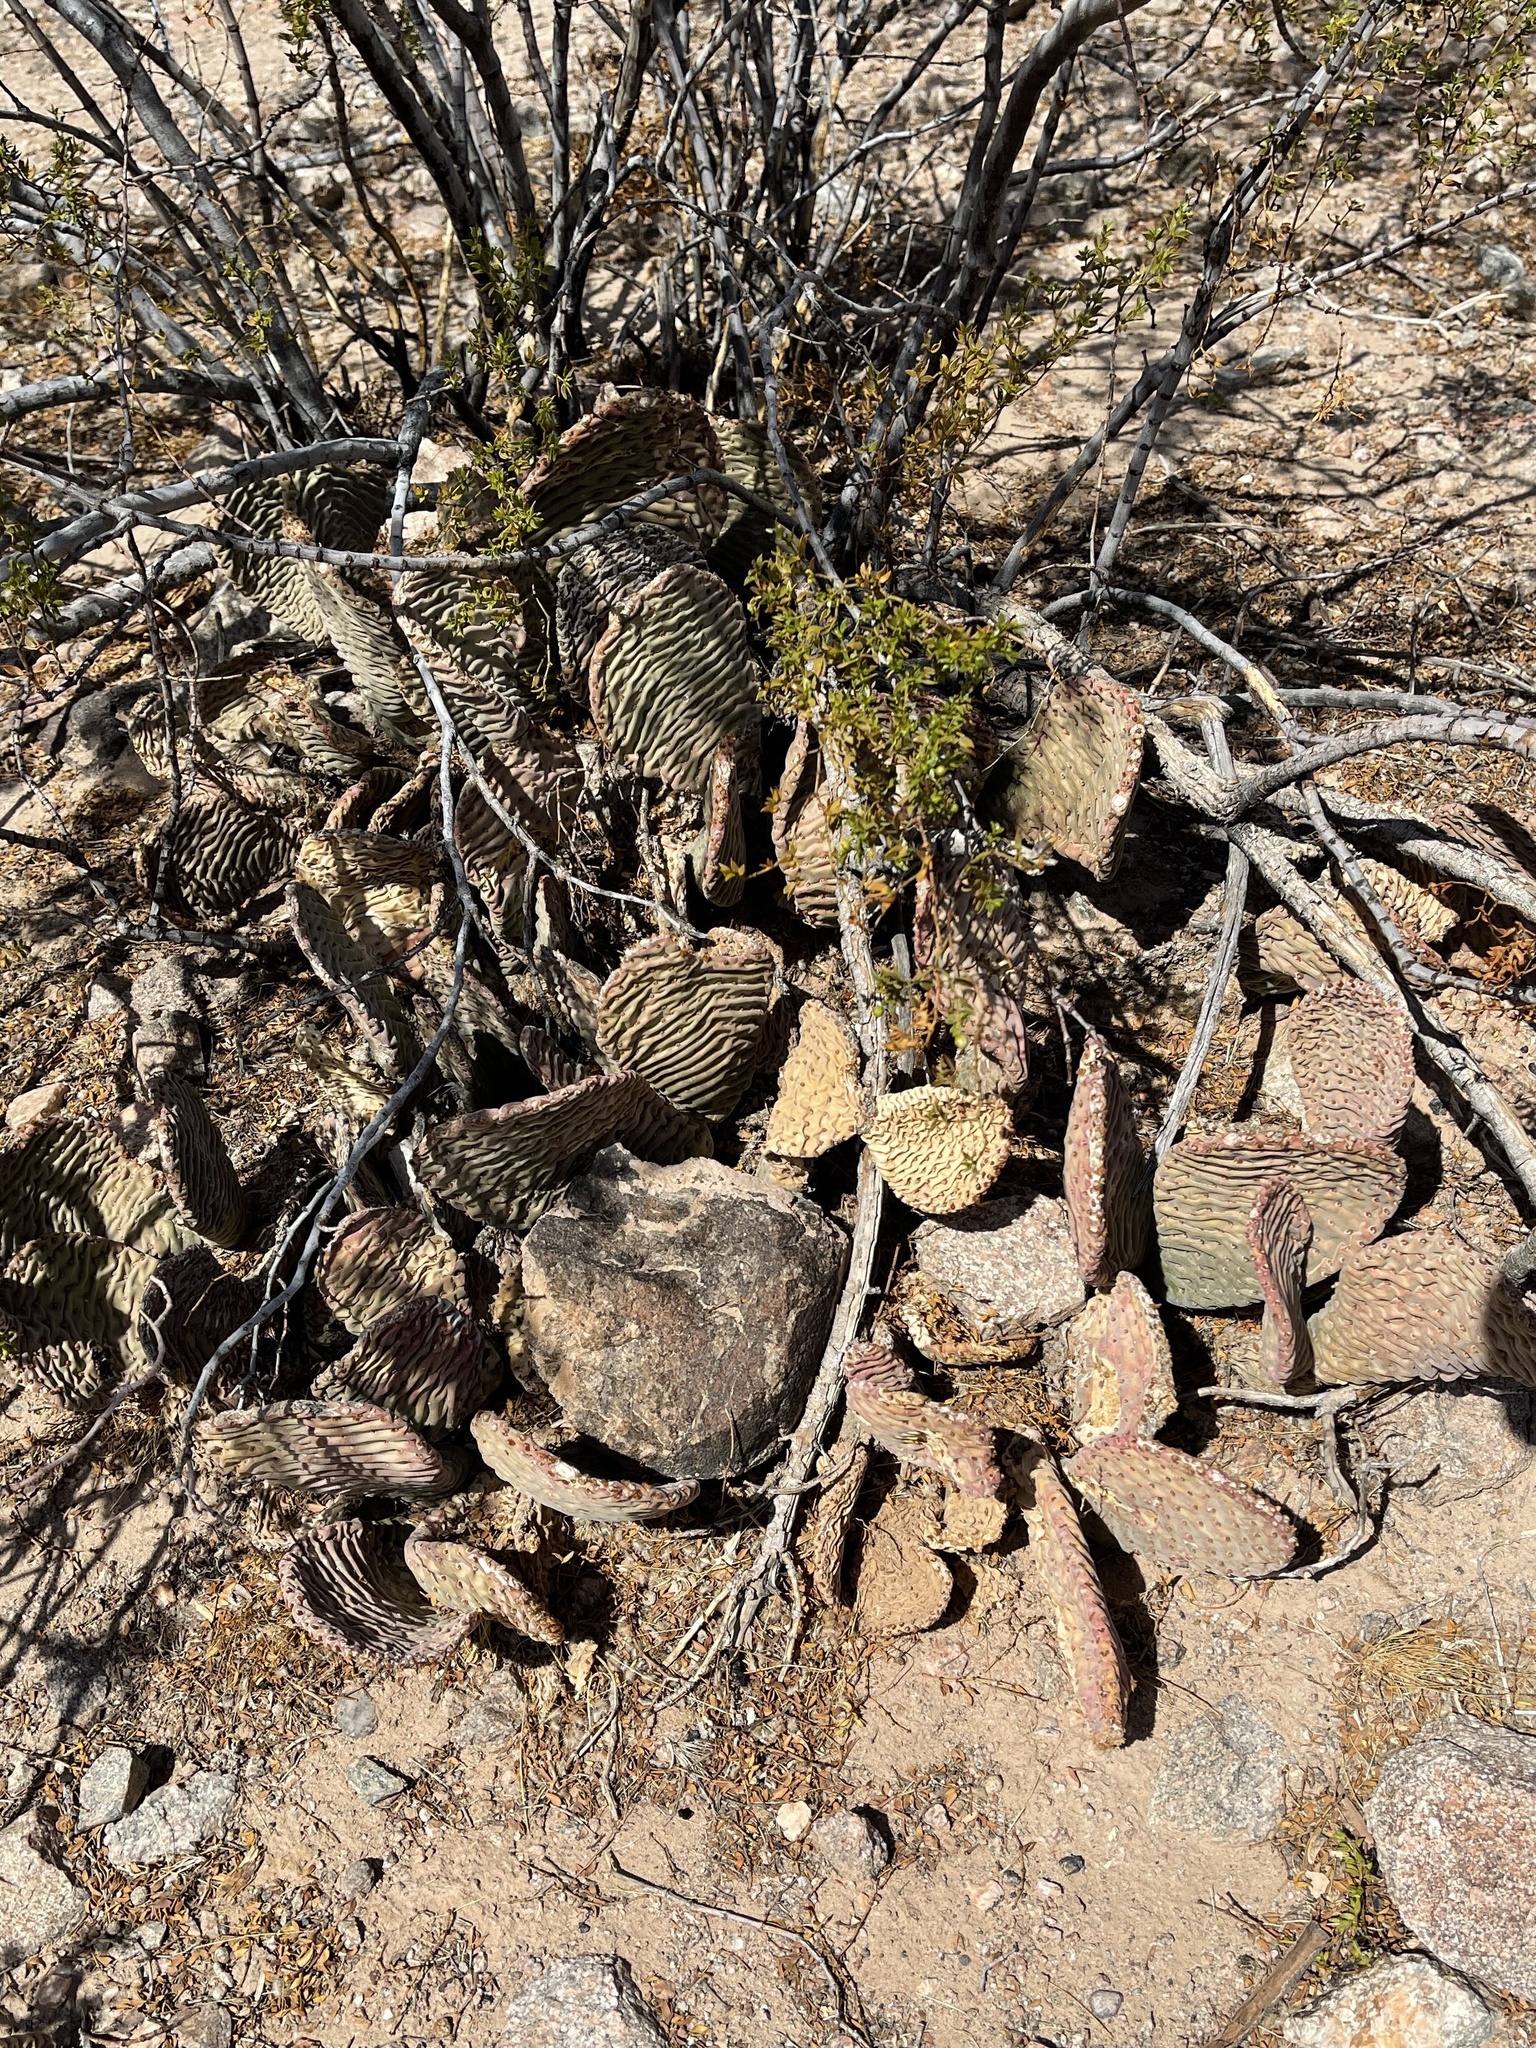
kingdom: Plantae
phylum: Tracheophyta
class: Magnoliopsida
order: Caryophyllales
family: Cactaceae
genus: Opuntia
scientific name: Opuntia basilaris
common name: Beavertail prickly-pear
